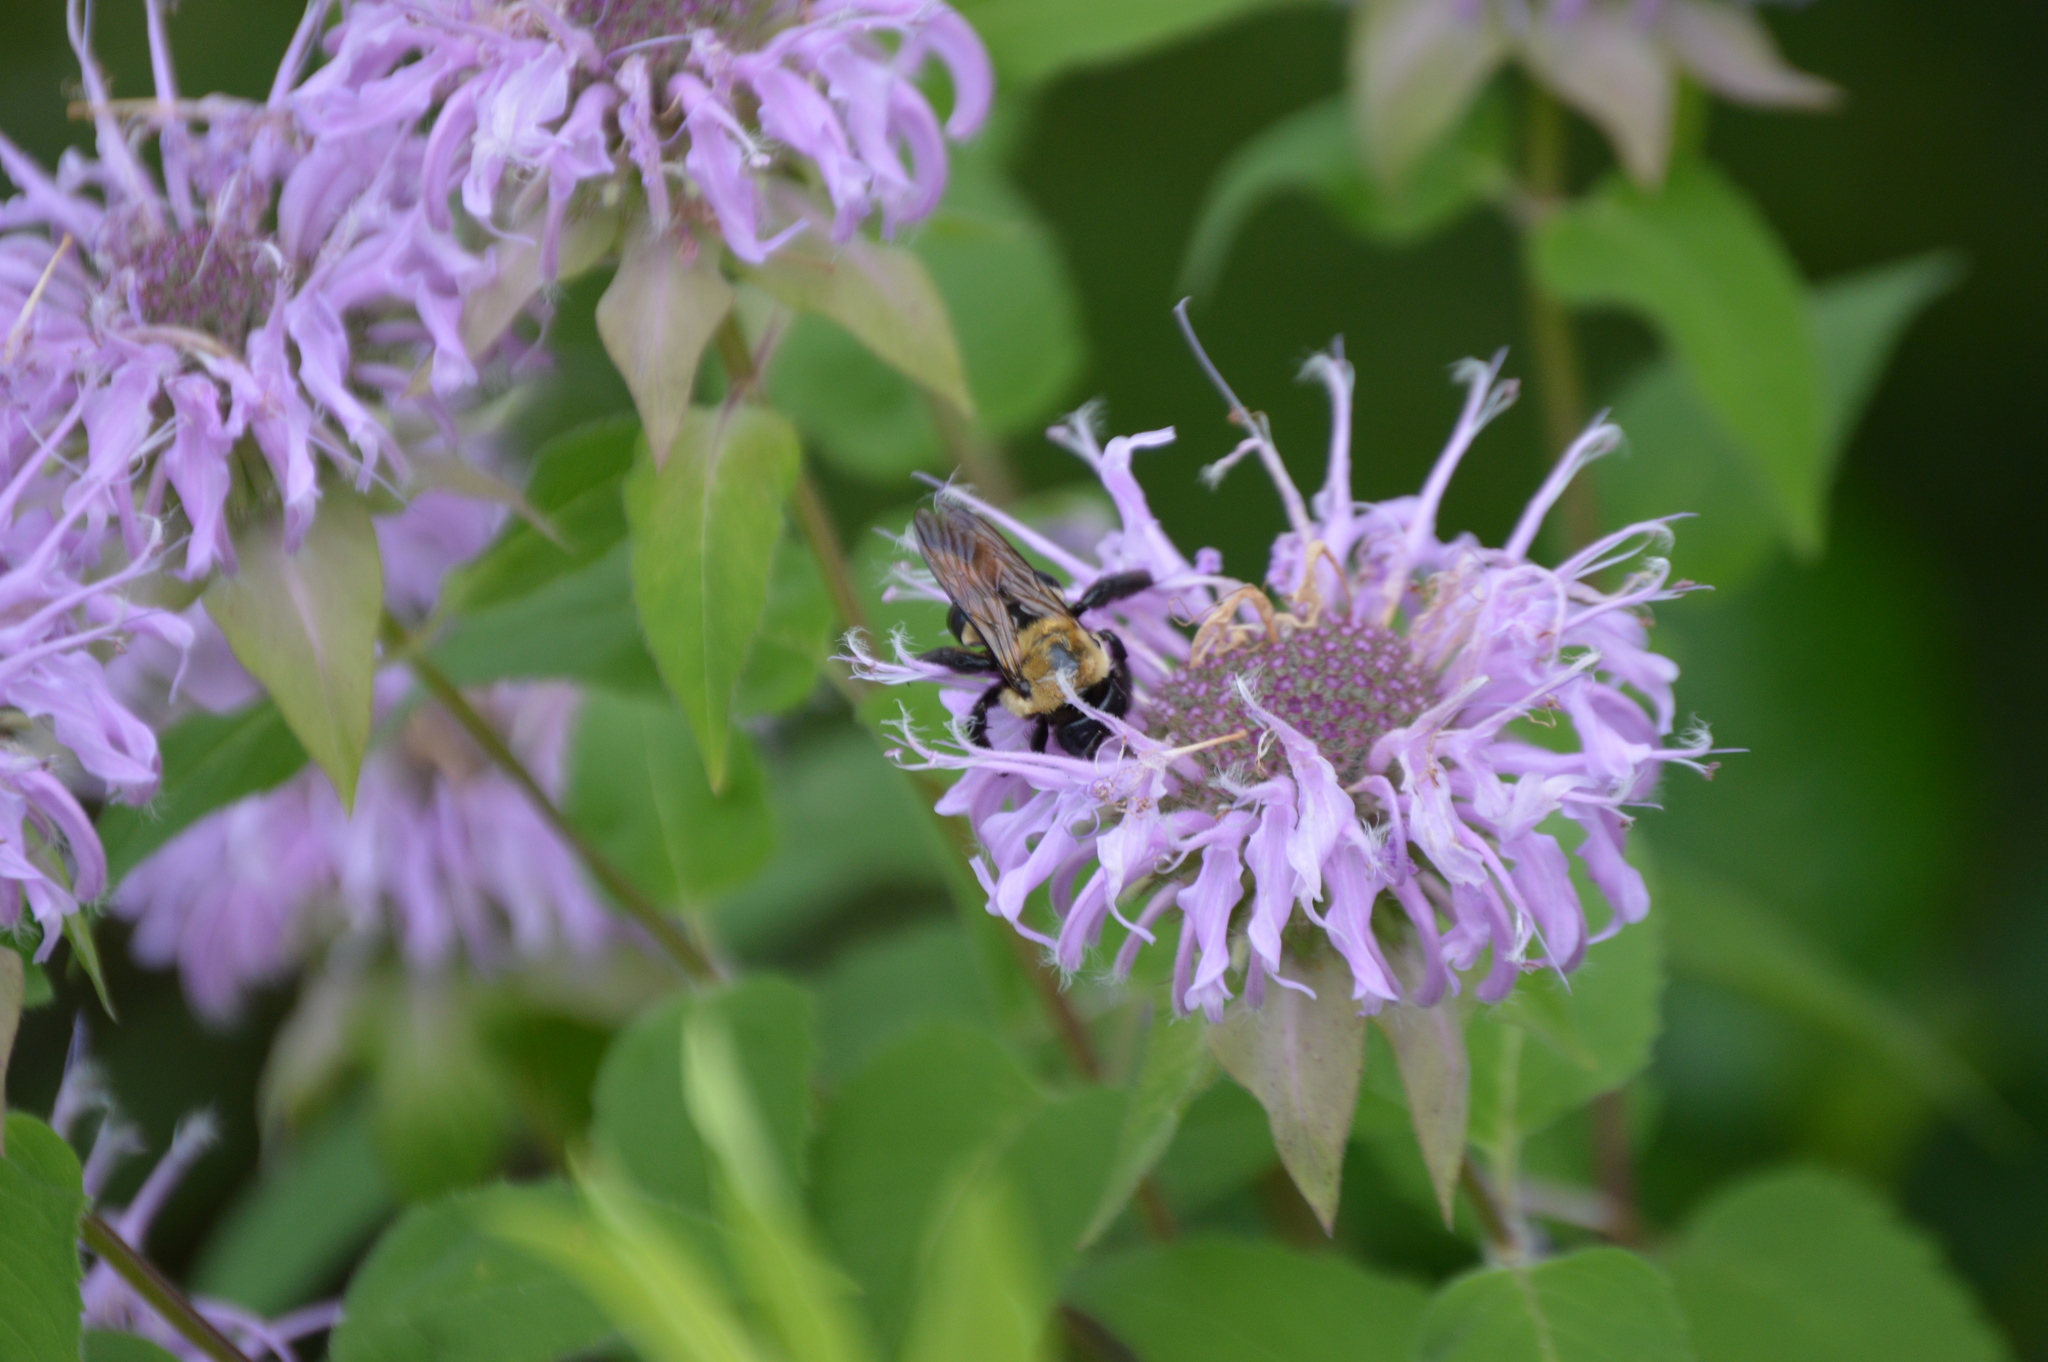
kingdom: Animalia
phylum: Arthropoda
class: Insecta
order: Hymenoptera
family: Apidae
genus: Xylocopa
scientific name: Xylocopa virginica
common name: Carpenter bee
